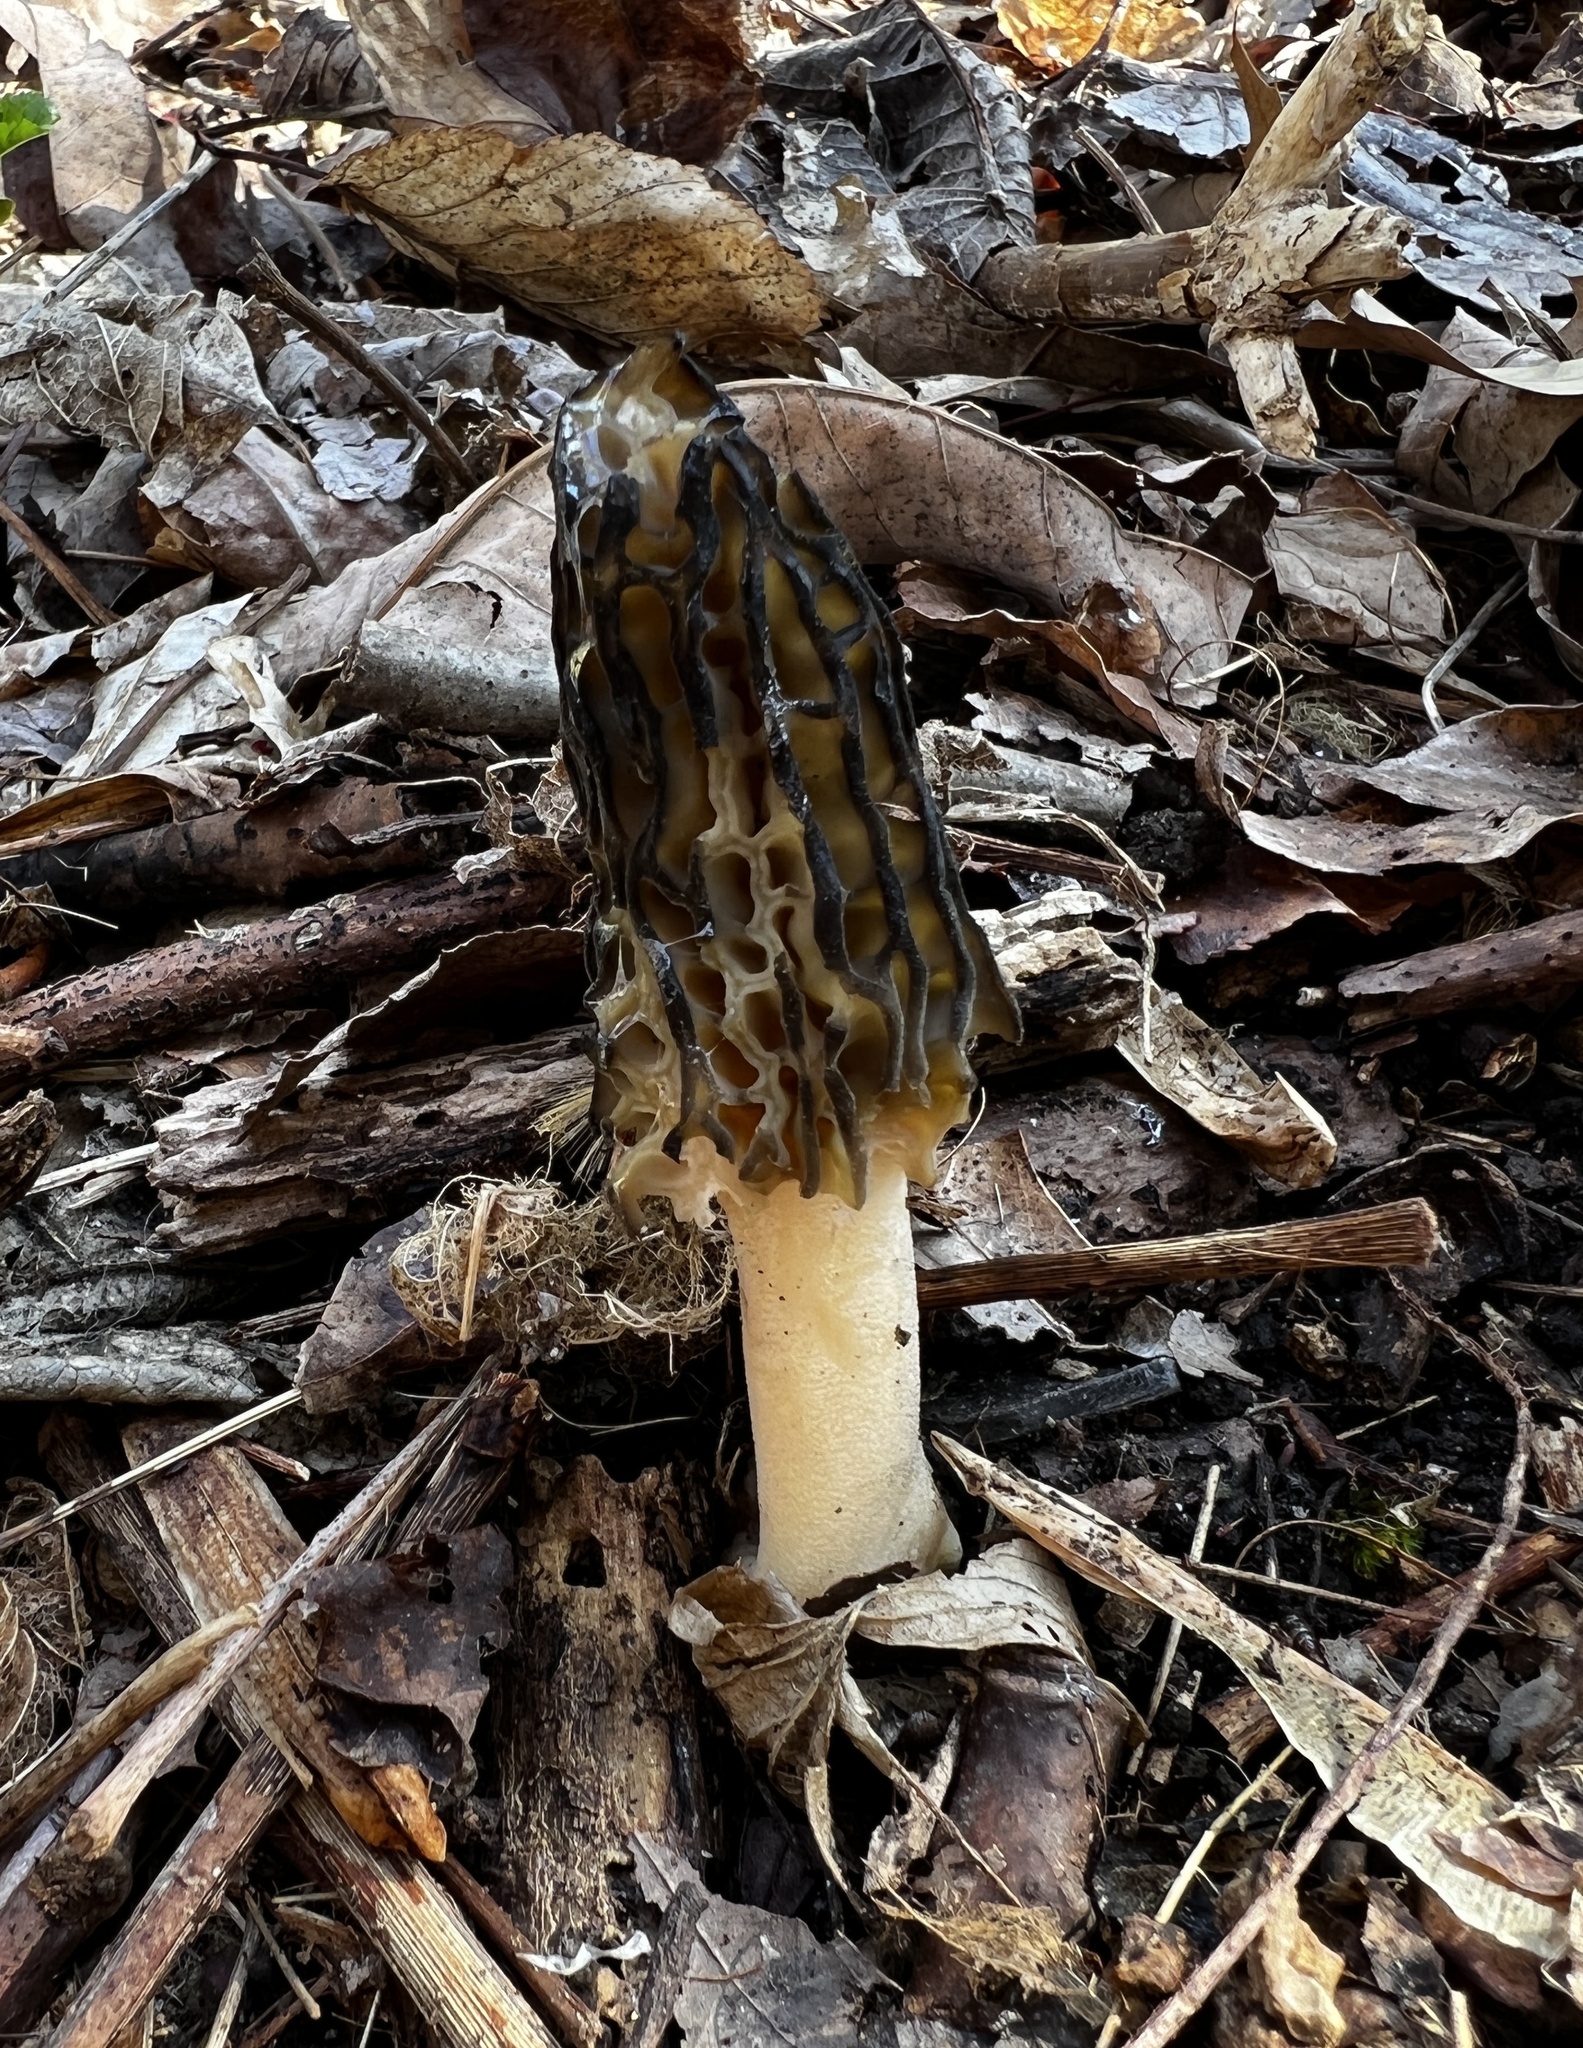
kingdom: Fungi
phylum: Ascomycota
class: Pezizomycetes
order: Pezizales
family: Morchellaceae
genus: Morchella
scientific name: Morchella angusticeps
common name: Black morel
